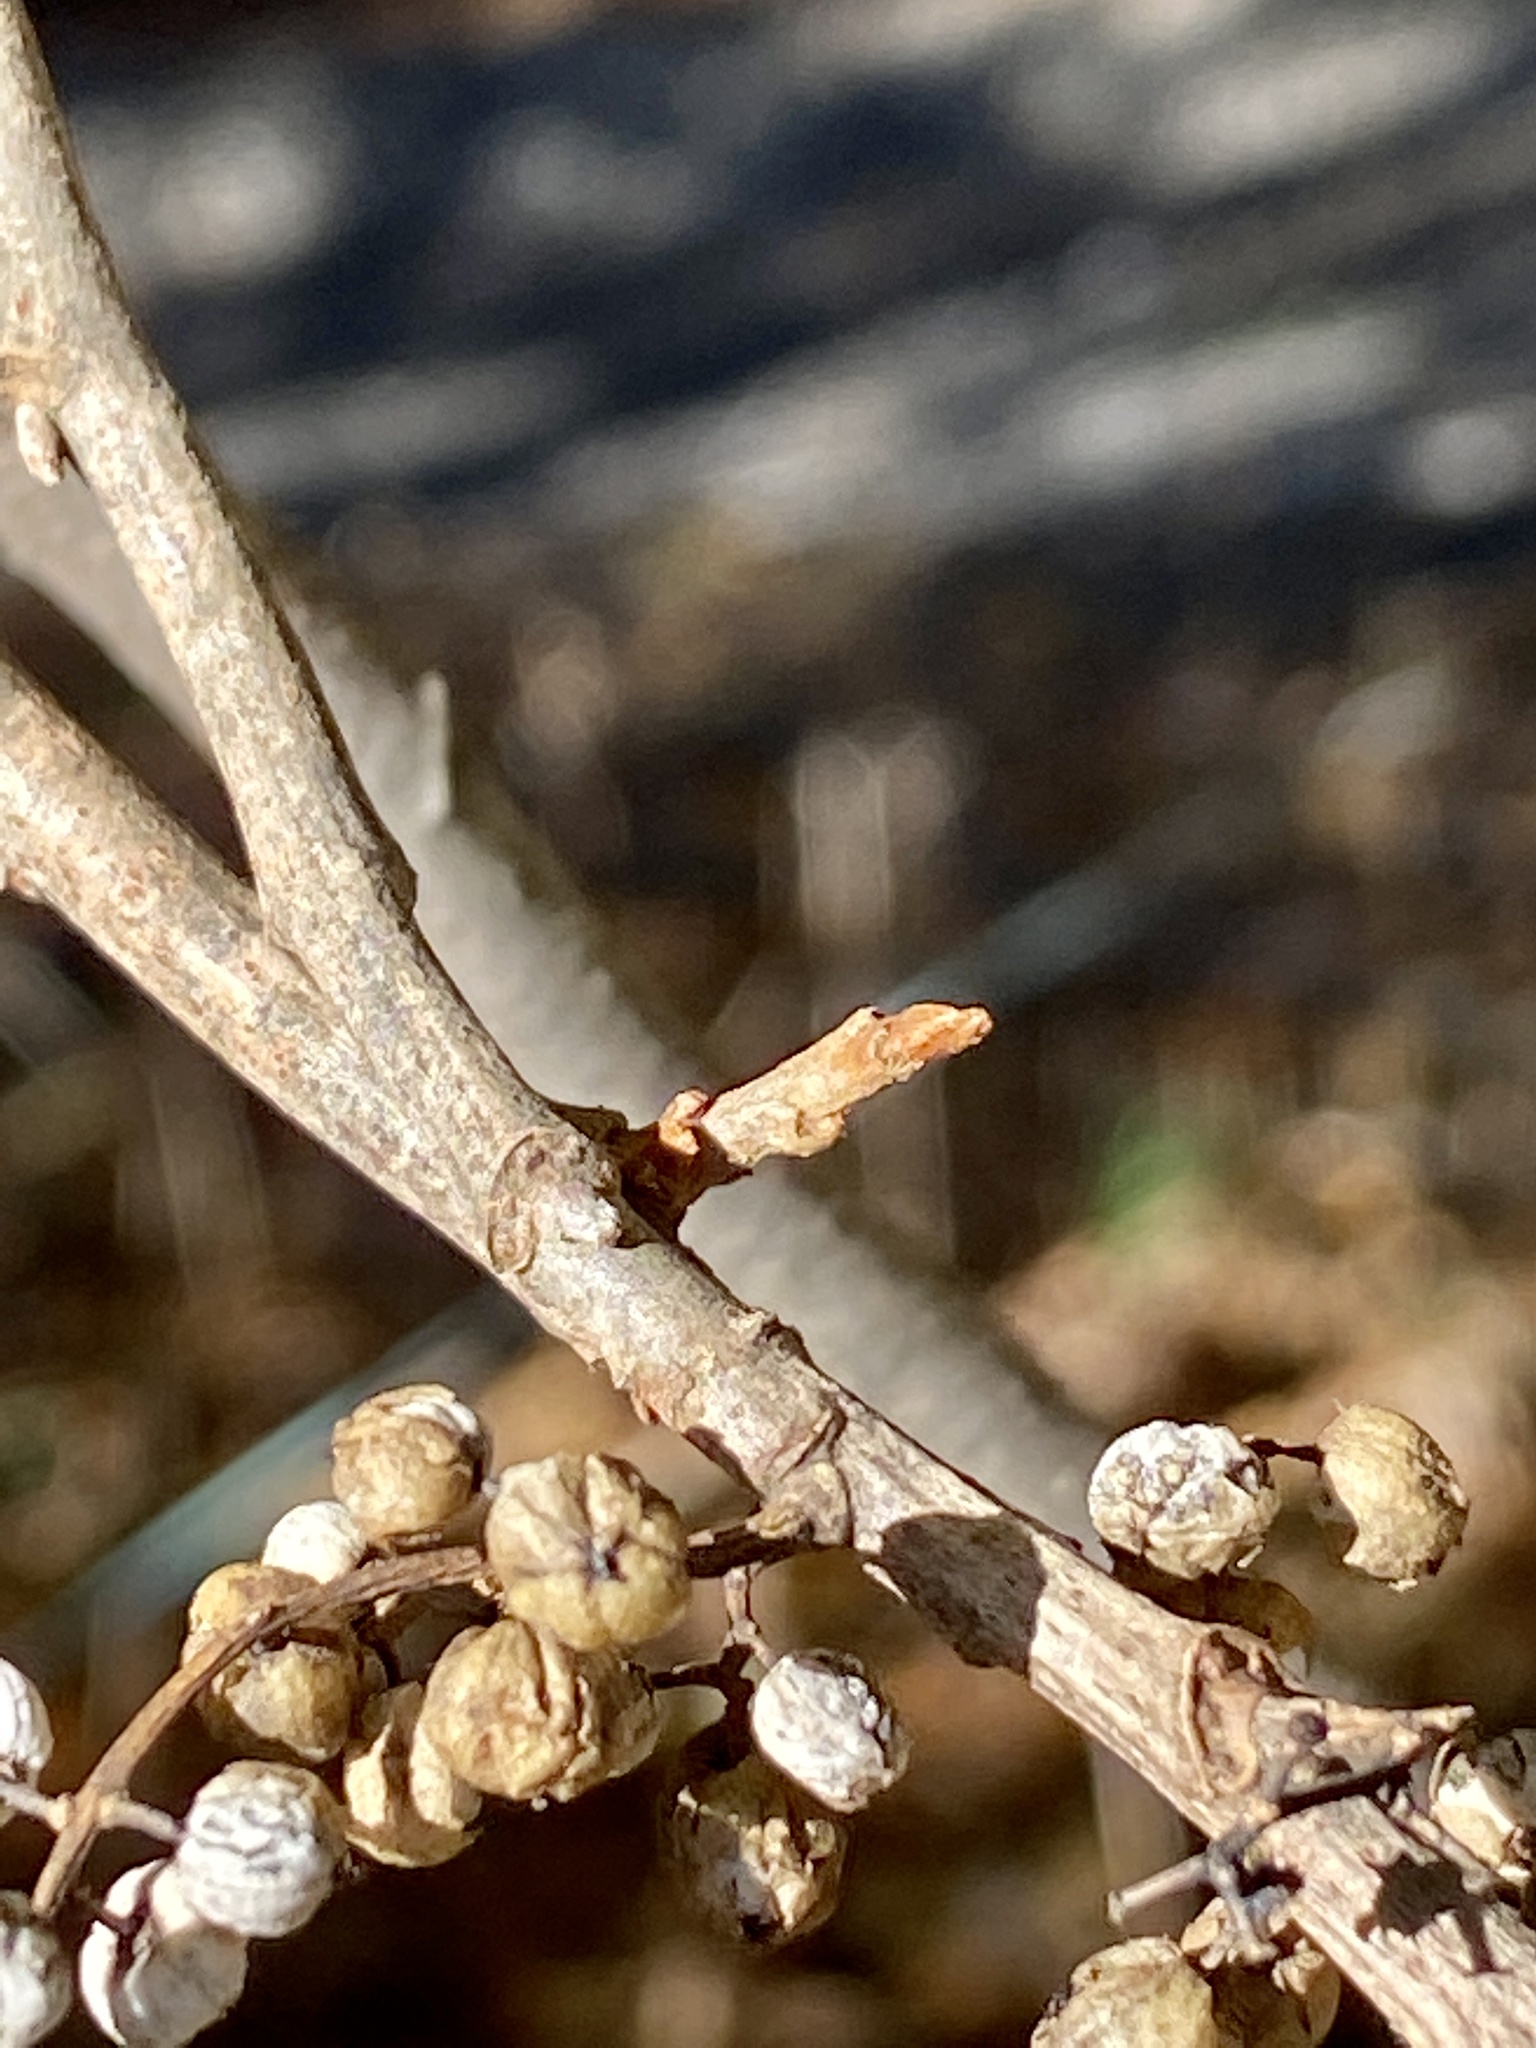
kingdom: Plantae
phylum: Tracheophyta
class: Magnoliopsida
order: Sapindales
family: Anacardiaceae
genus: Toxicodendron
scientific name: Toxicodendron radicans
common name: Poison ivy
